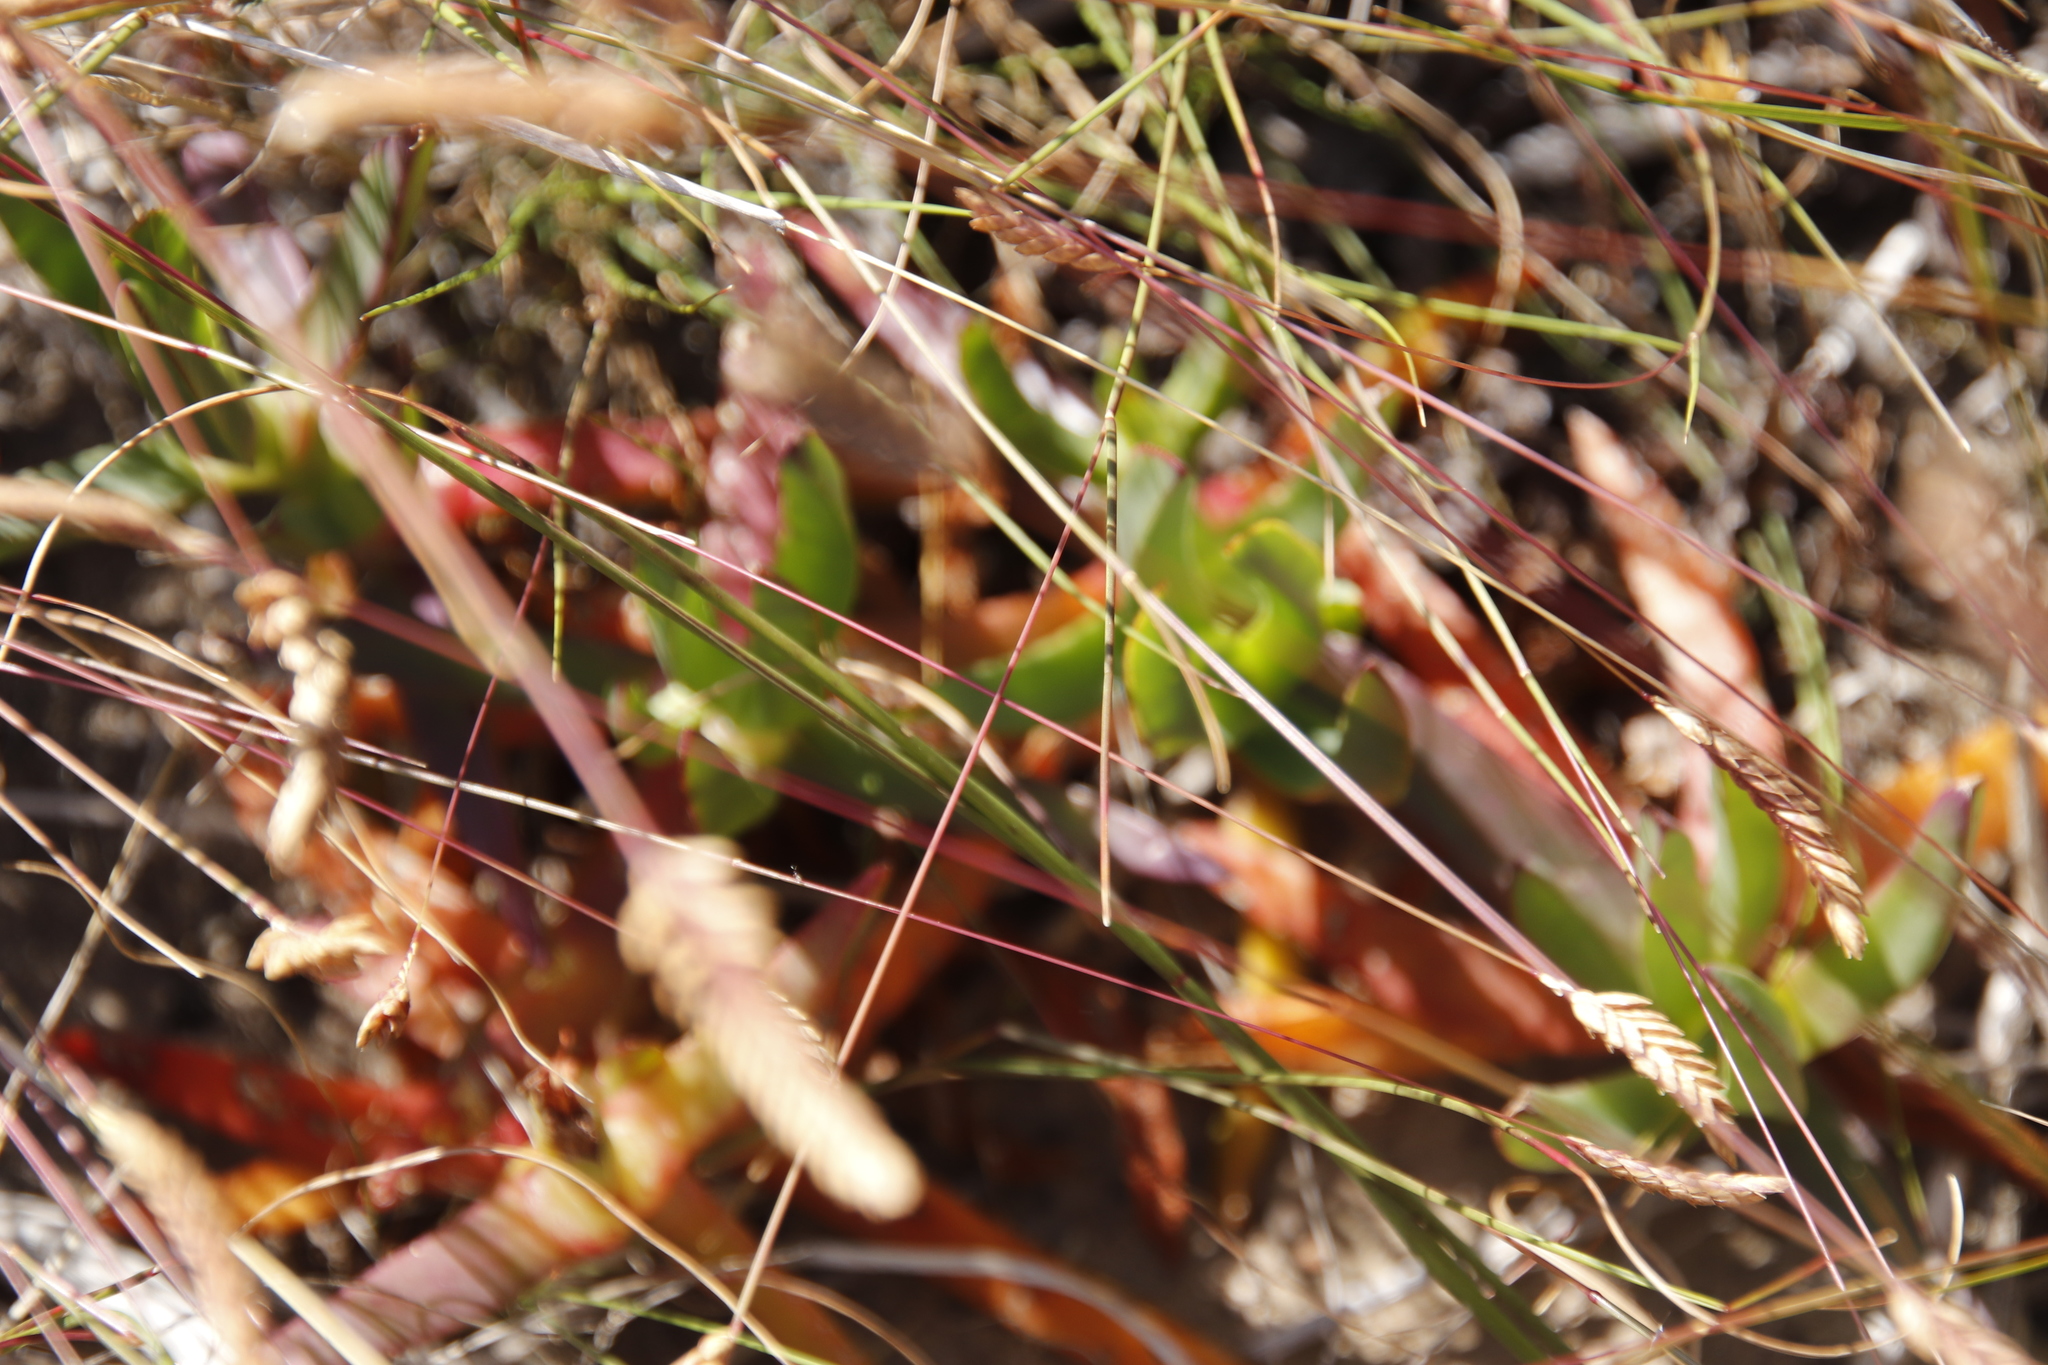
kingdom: Plantae
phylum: Tracheophyta
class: Magnoliopsida
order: Caryophyllales
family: Aizoaceae
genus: Carpobrotus
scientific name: Carpobrotus edulis
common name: Hottentot-fig
